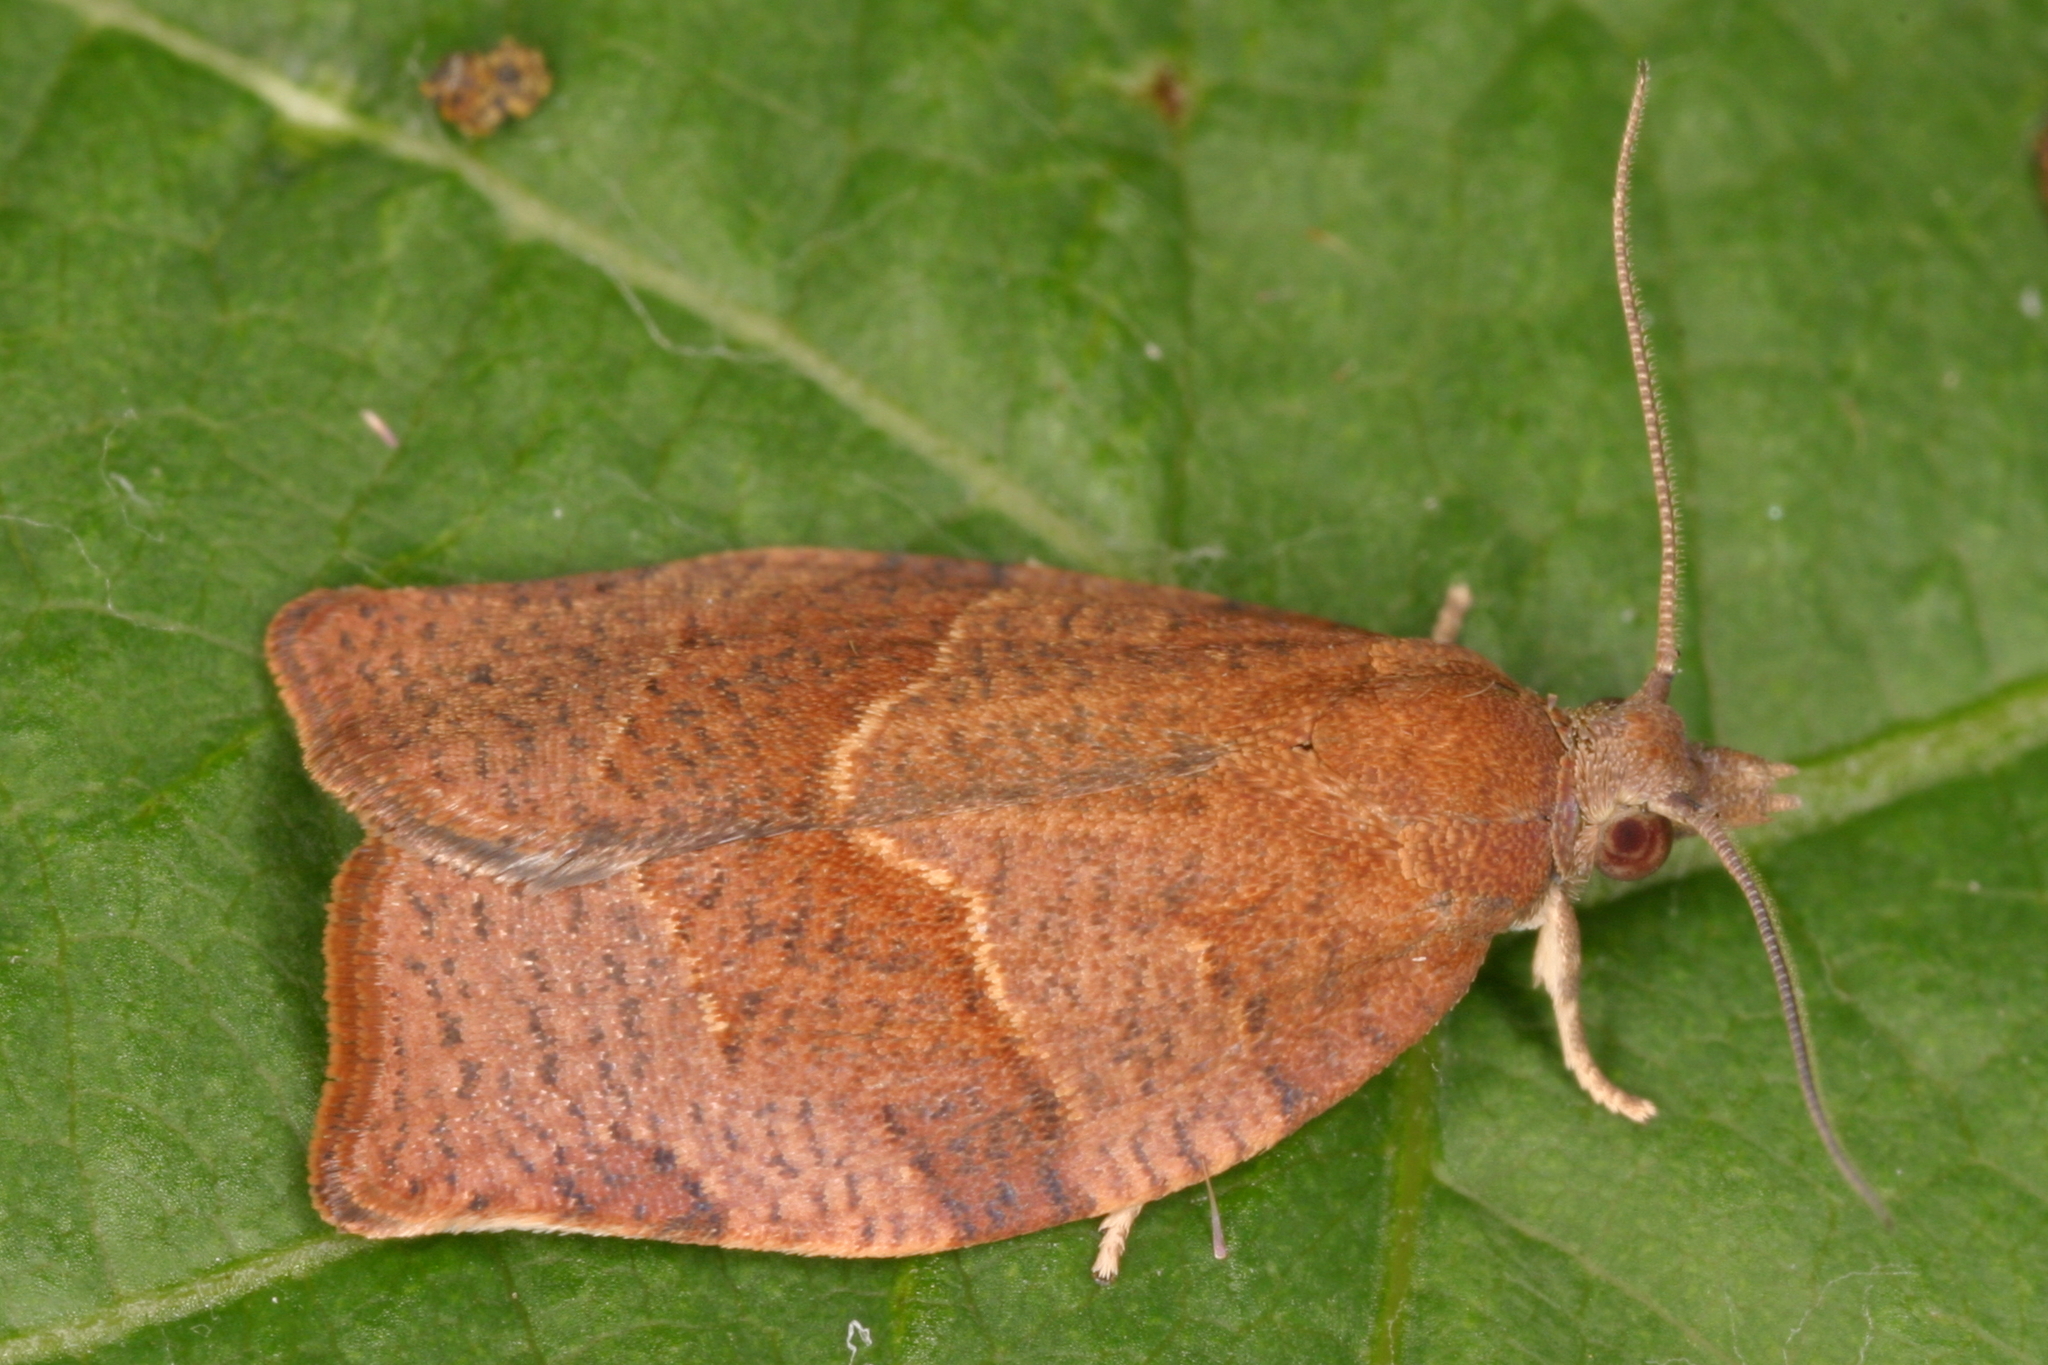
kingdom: Animalia
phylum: Arthropoda
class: Insecta
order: Lepidoptera
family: Tortricidae
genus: Pandemis
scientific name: Pandemis heparana
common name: Dark fruit-tree tortrix
